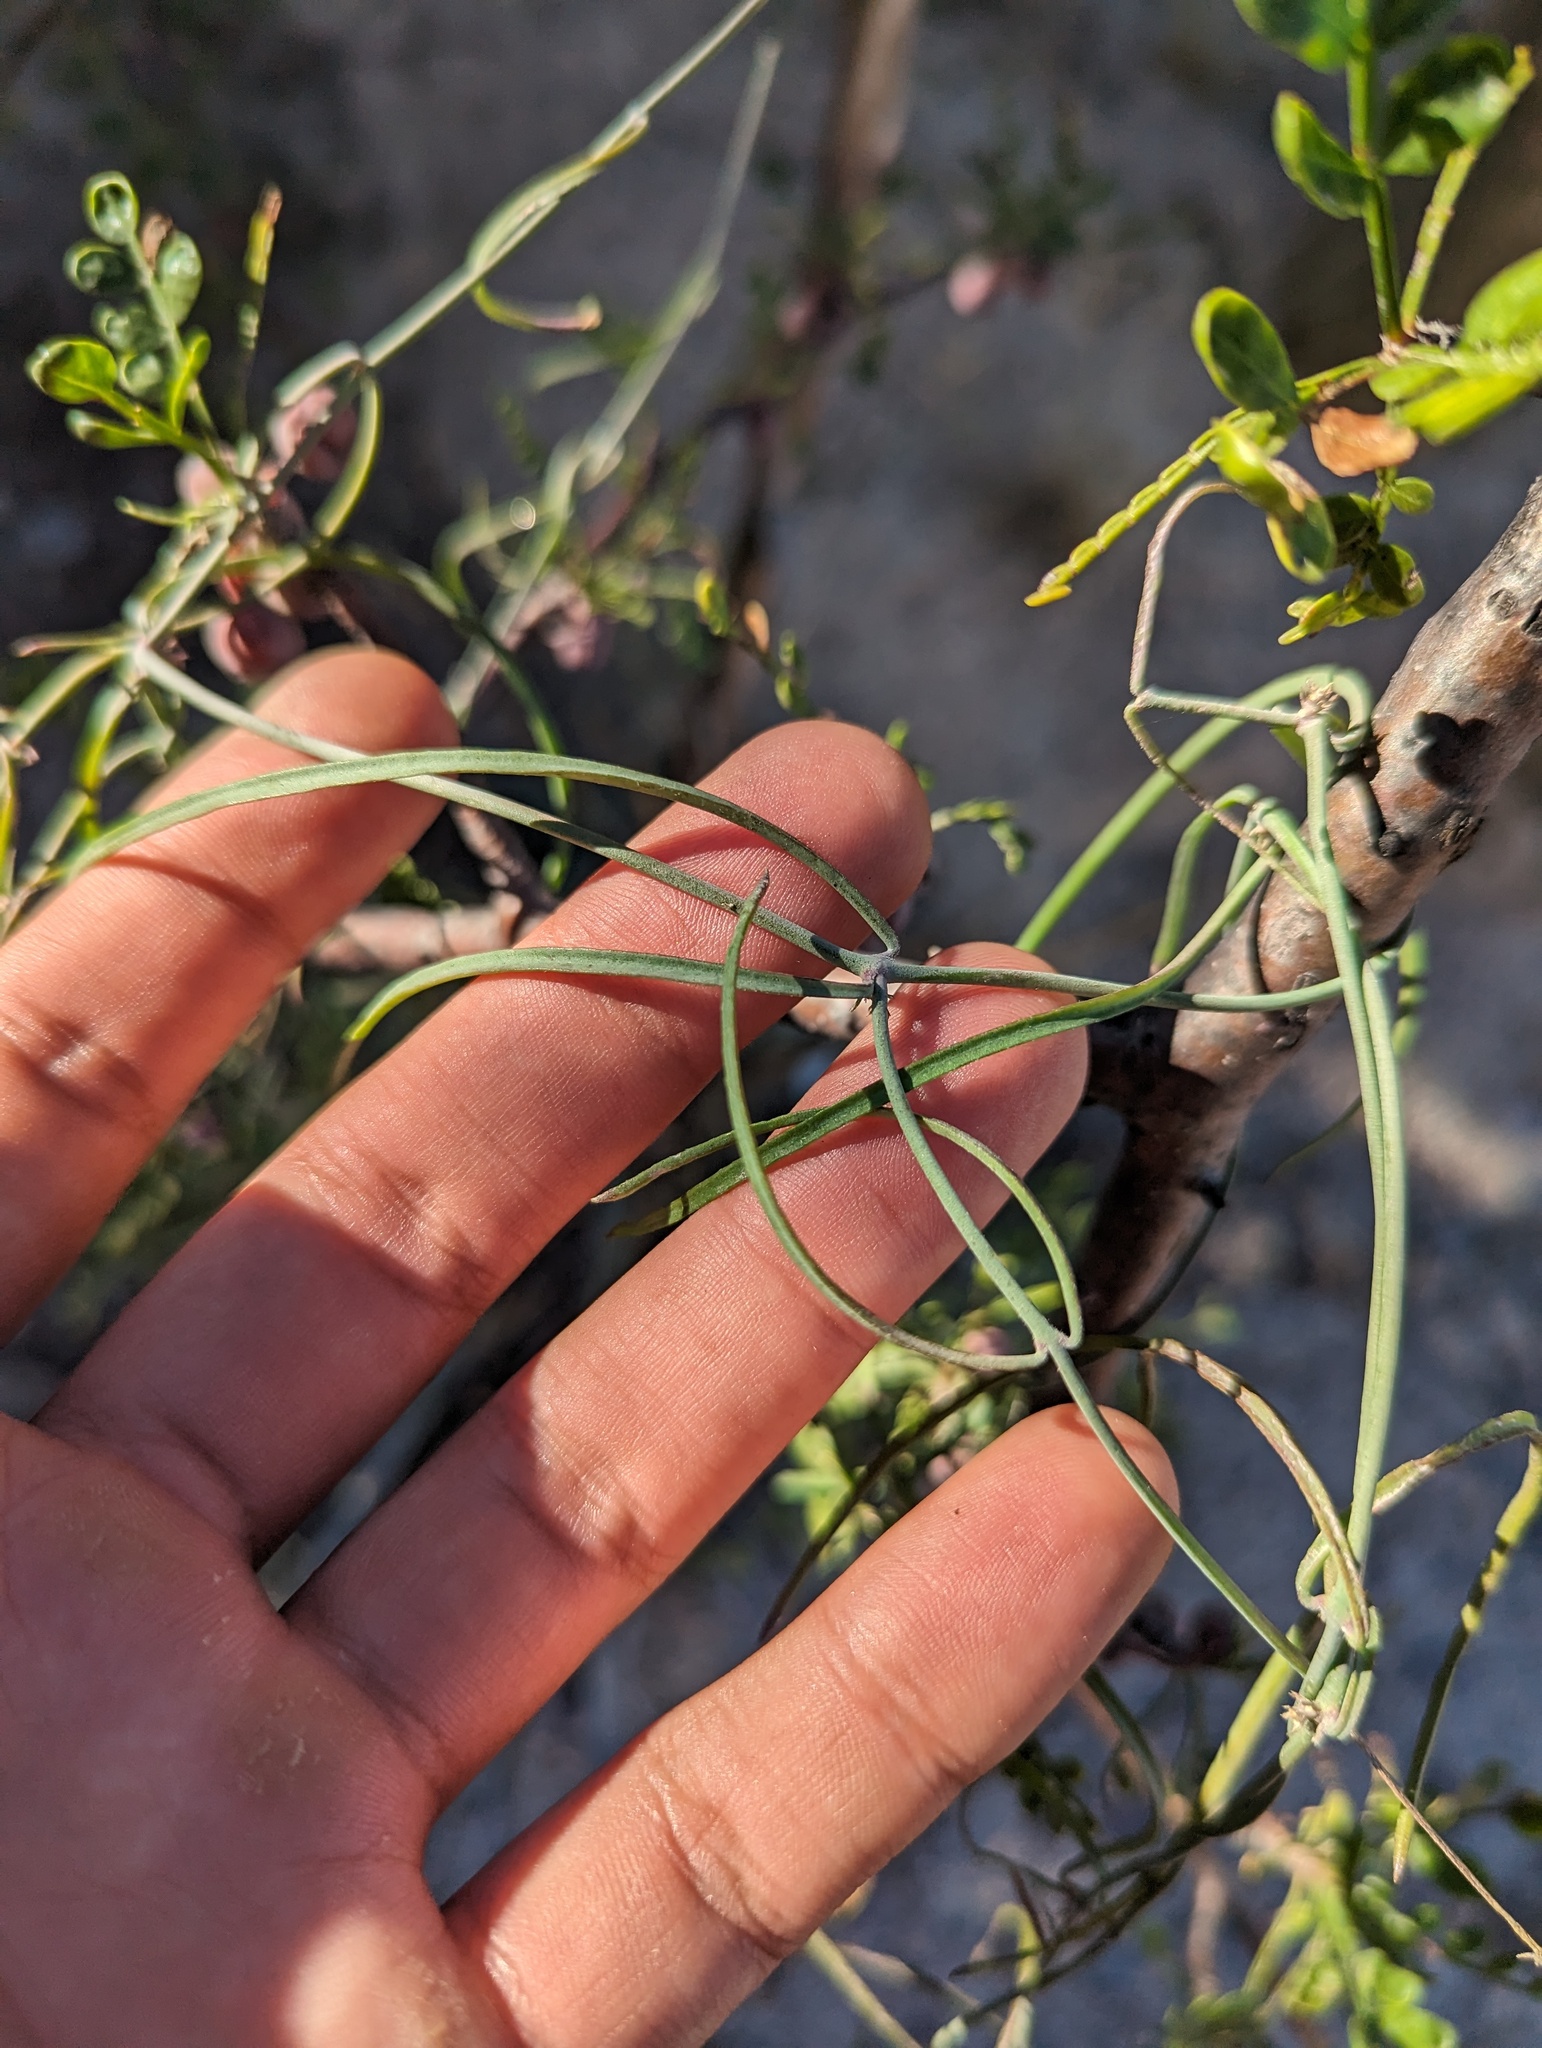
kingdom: Plantae
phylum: Tracheophyta
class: Magnoliopsida
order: Gentianales
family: Apocynaceae
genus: Pattalias
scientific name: Pattalias palmeri
